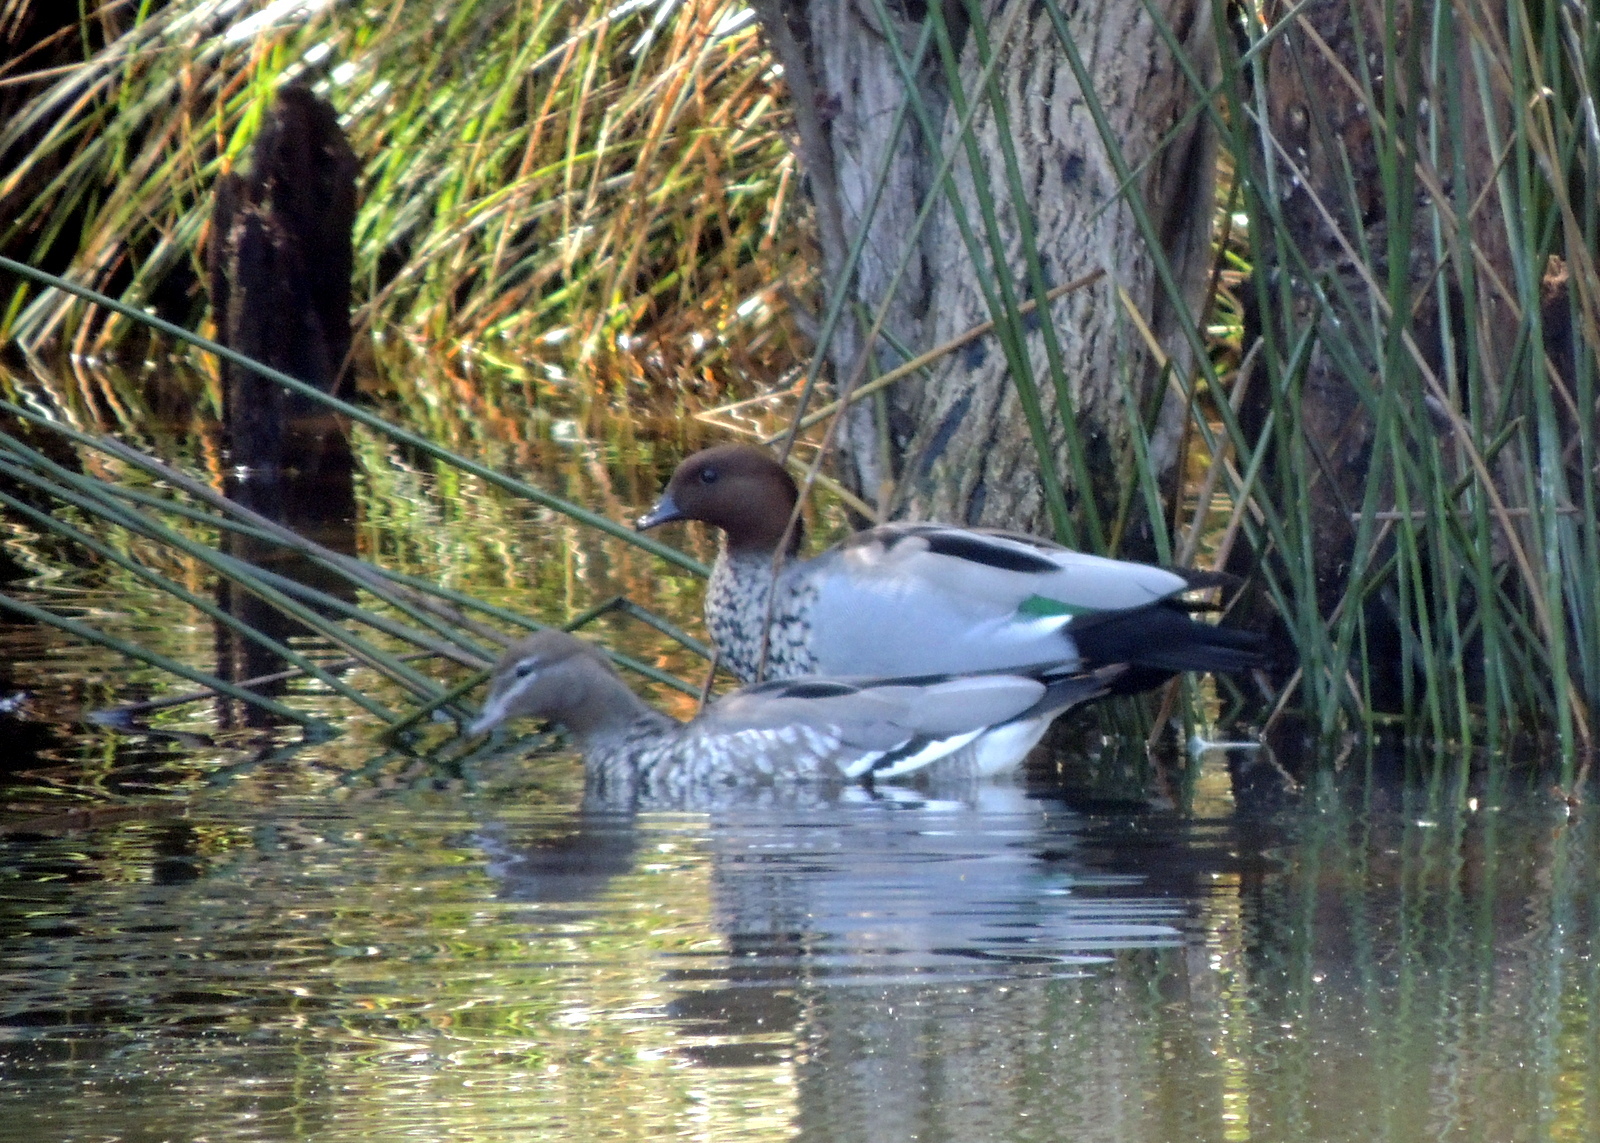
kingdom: Animalia
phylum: Chordata
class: Aves
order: Anseriformes
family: Anatidae
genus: Chenonetta
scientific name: Chenonetta jubata
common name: Maned duck
